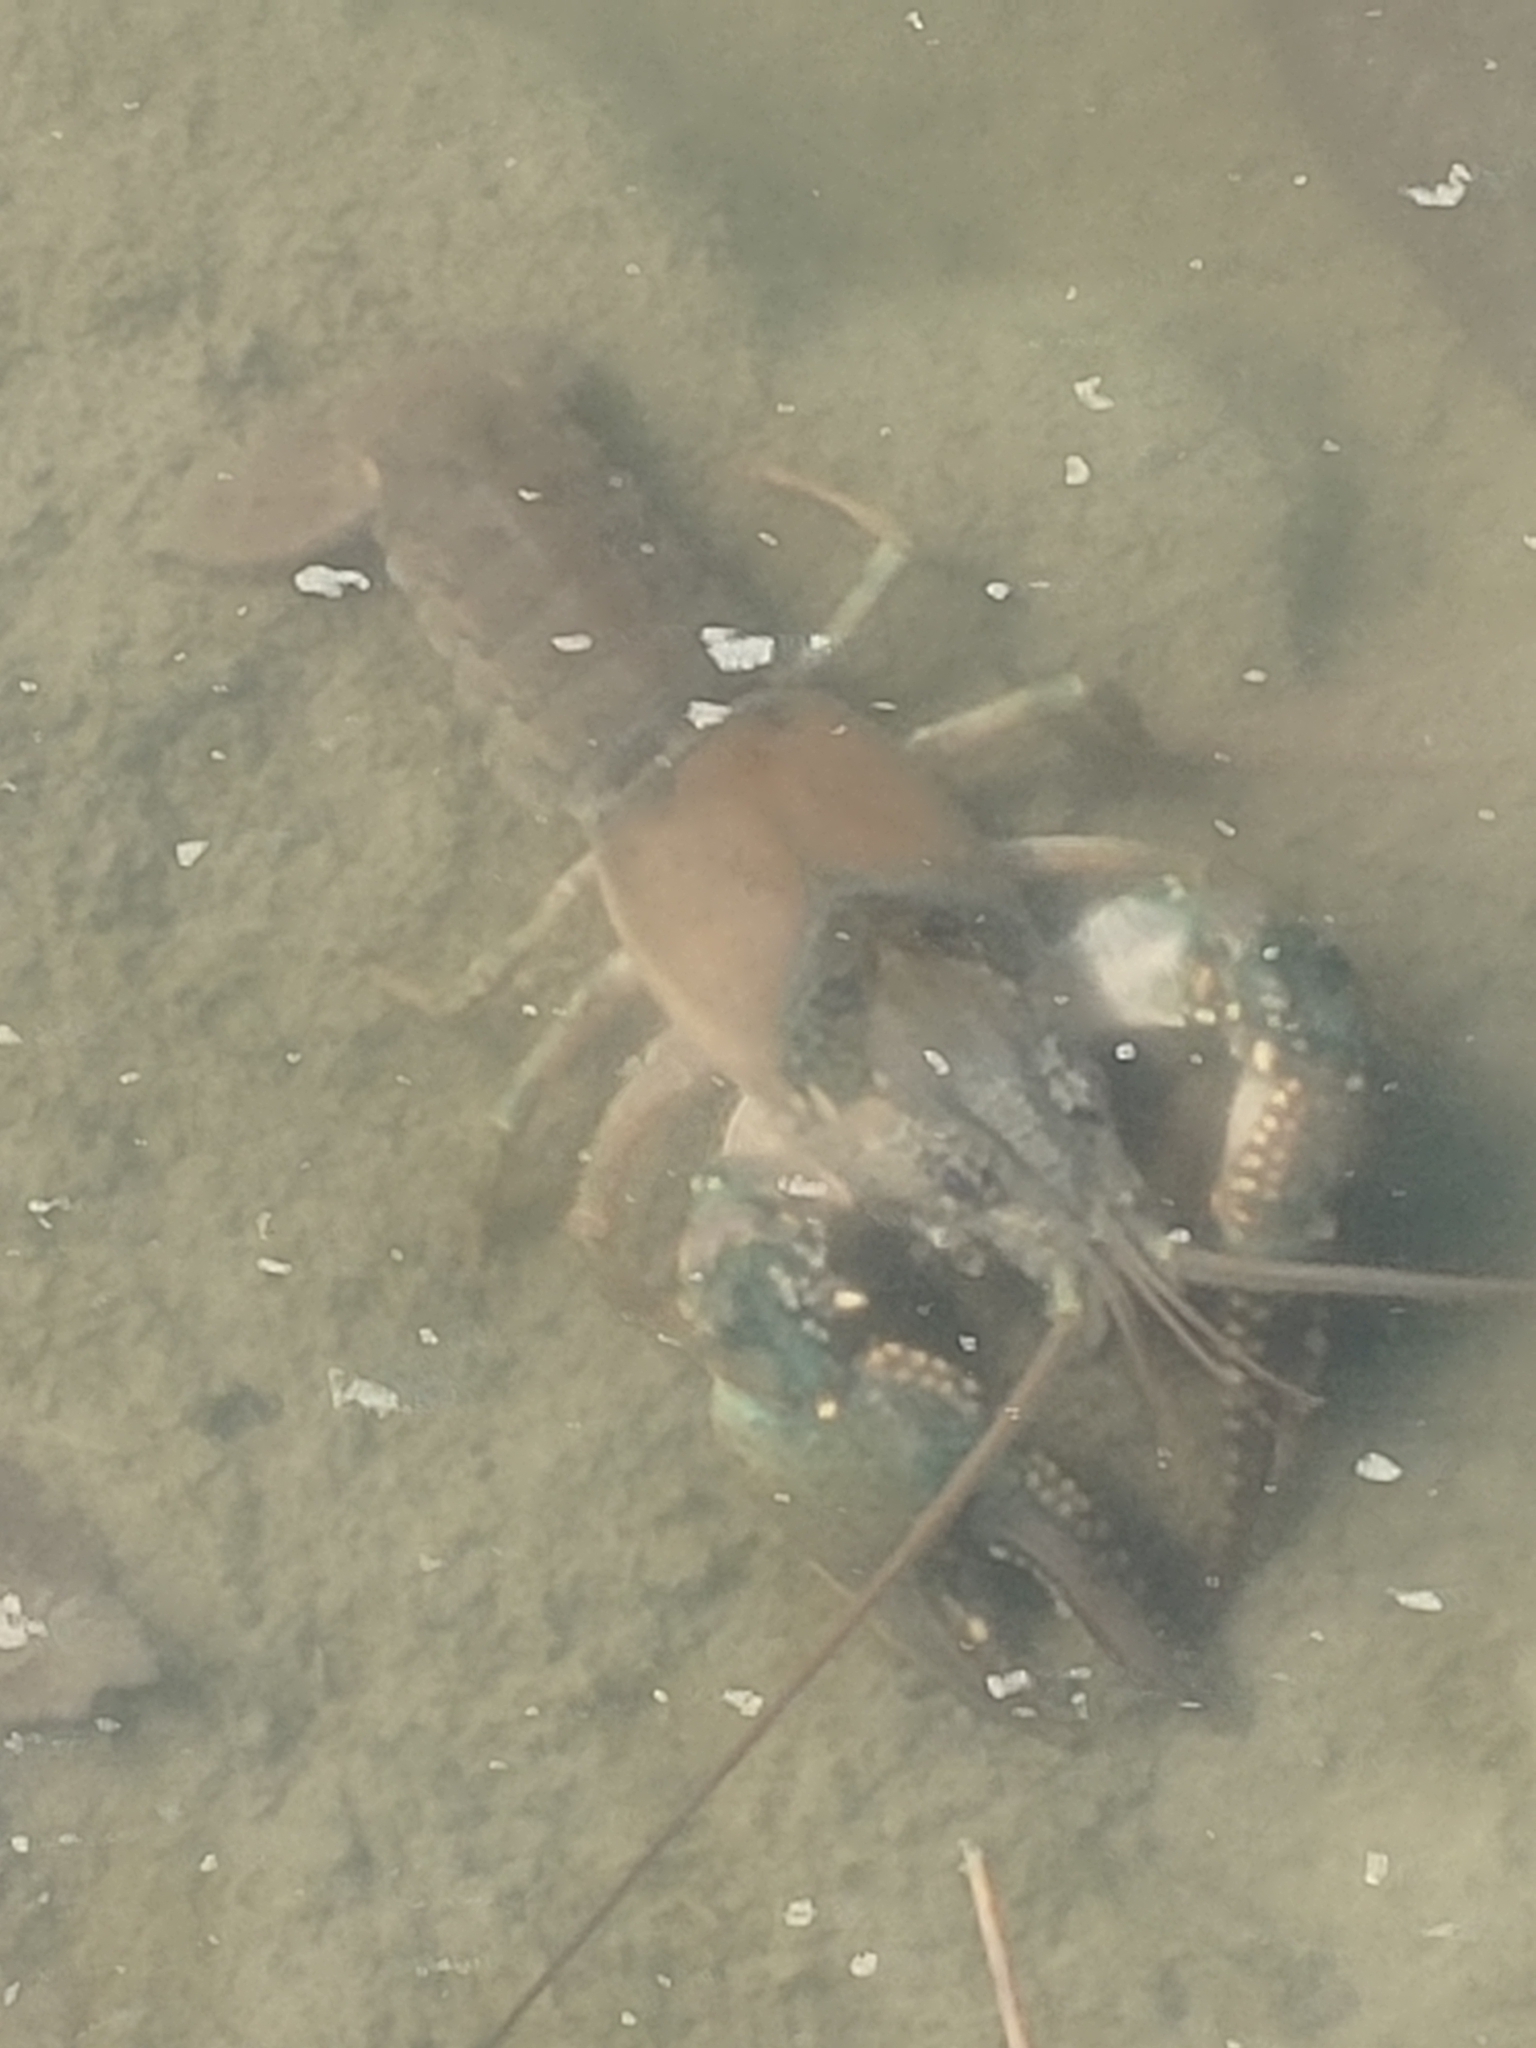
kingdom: Animalia
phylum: Arthropoda
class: Malacostraca
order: Decapoda
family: Cambaridae
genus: Faxonius
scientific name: Faxonius virilis
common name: Virile crayfish
